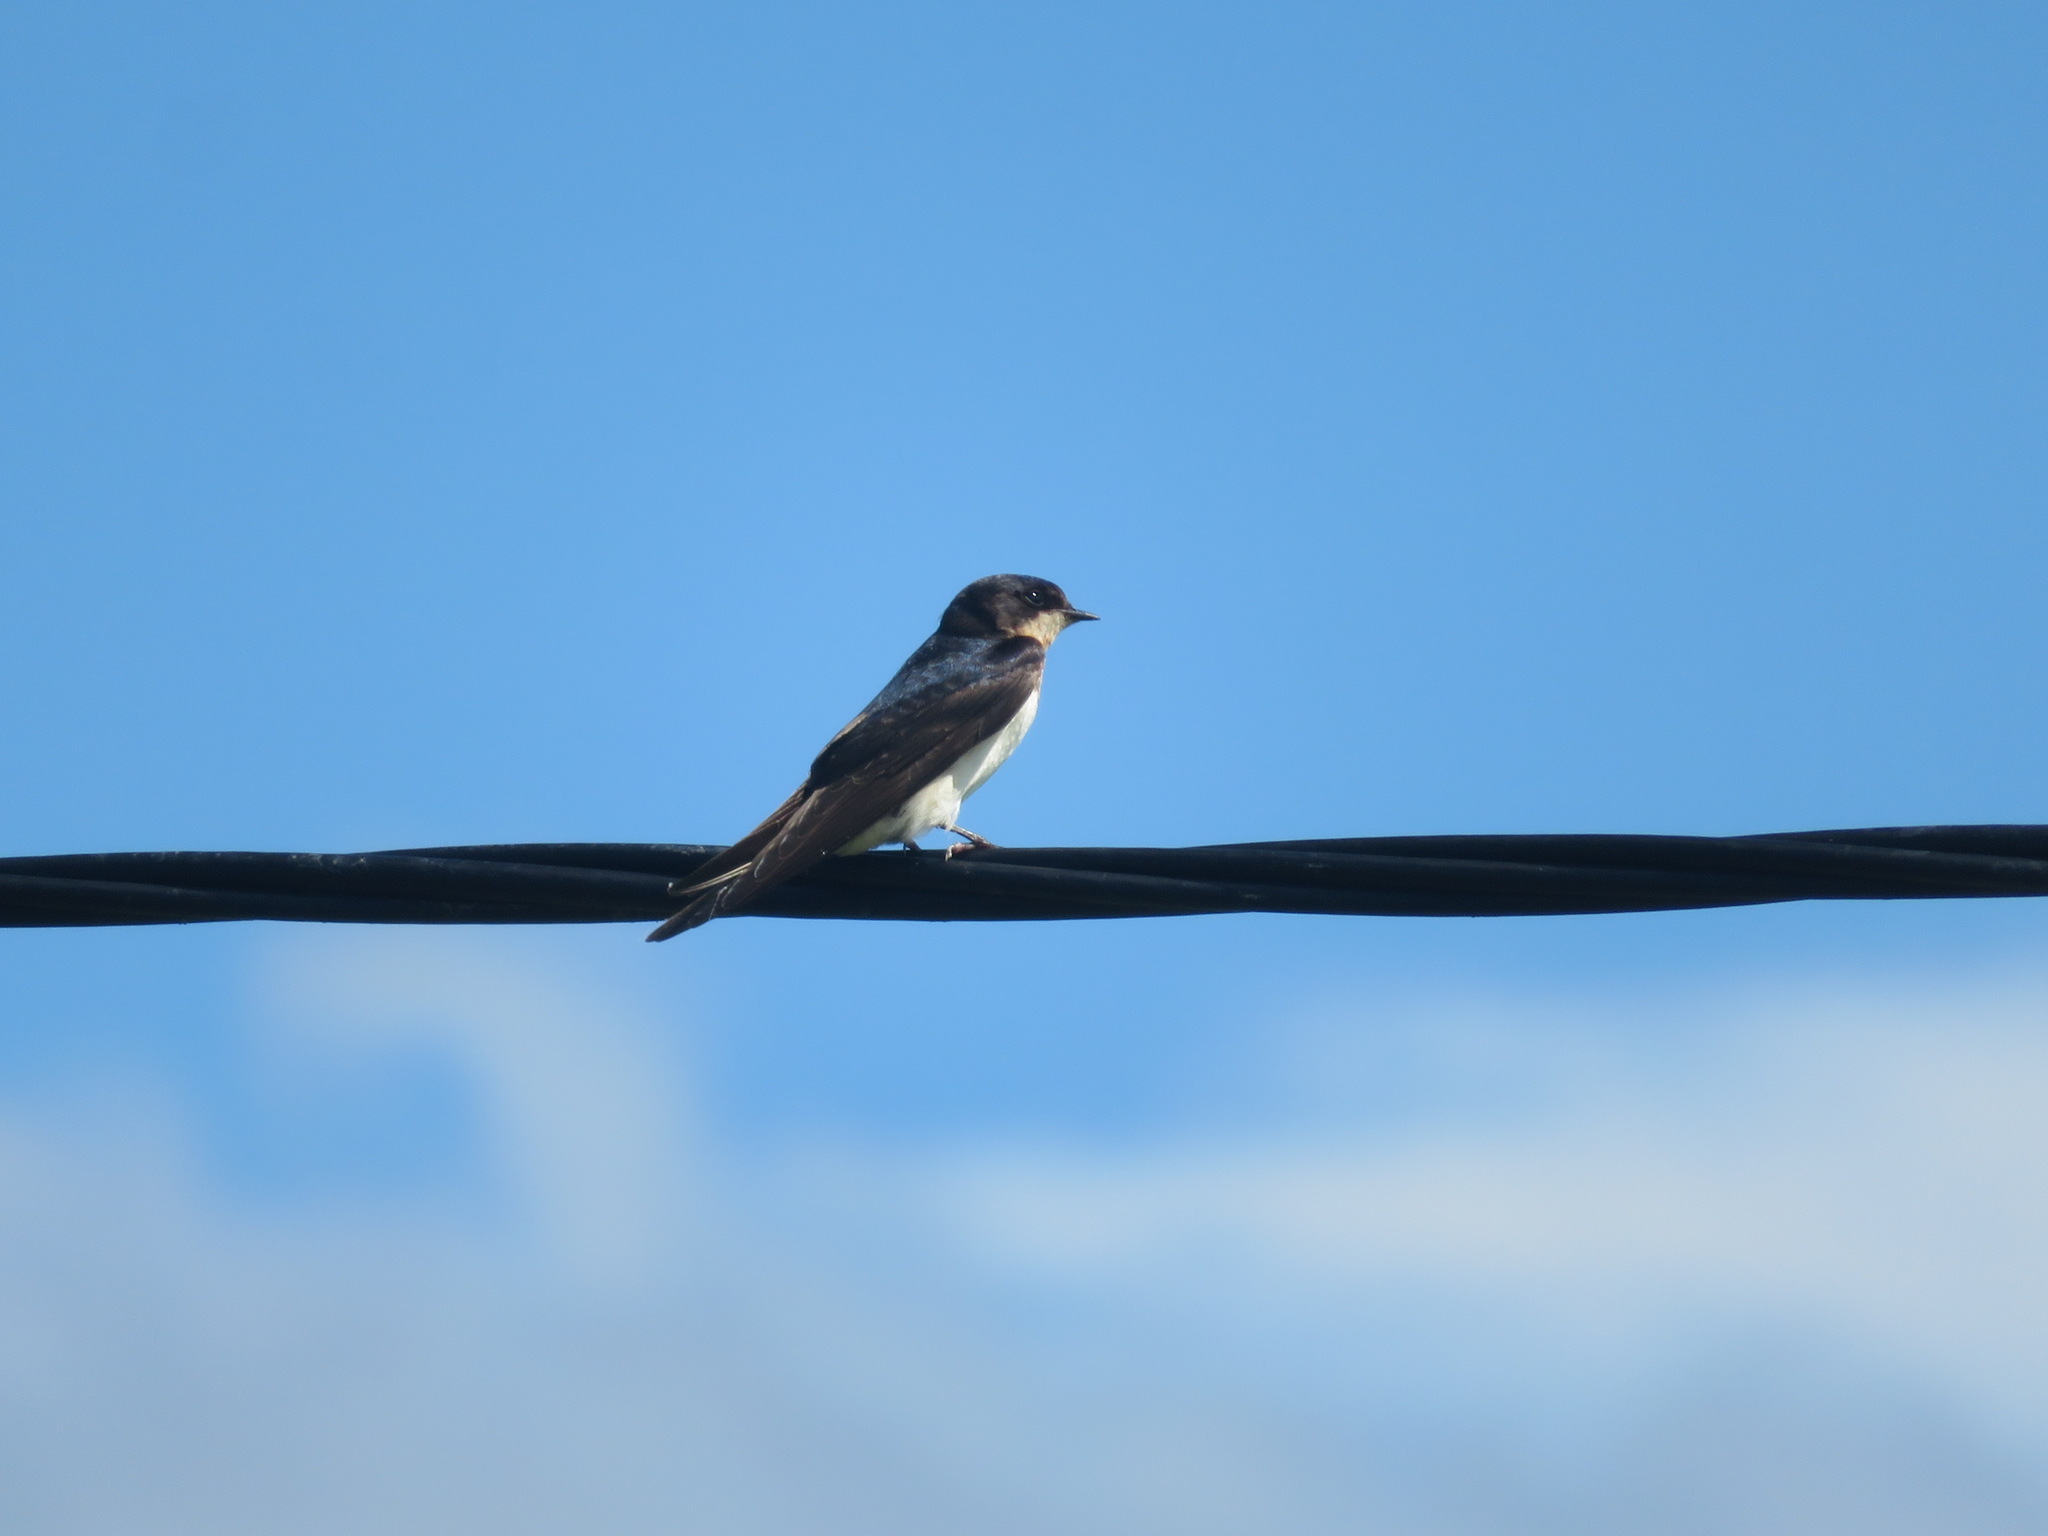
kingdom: Animalia
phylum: Chordata
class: Aves
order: Passeriformes
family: Hirundinidae
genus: Hirundo
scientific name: Hirundo rustica
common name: Barn swallow
